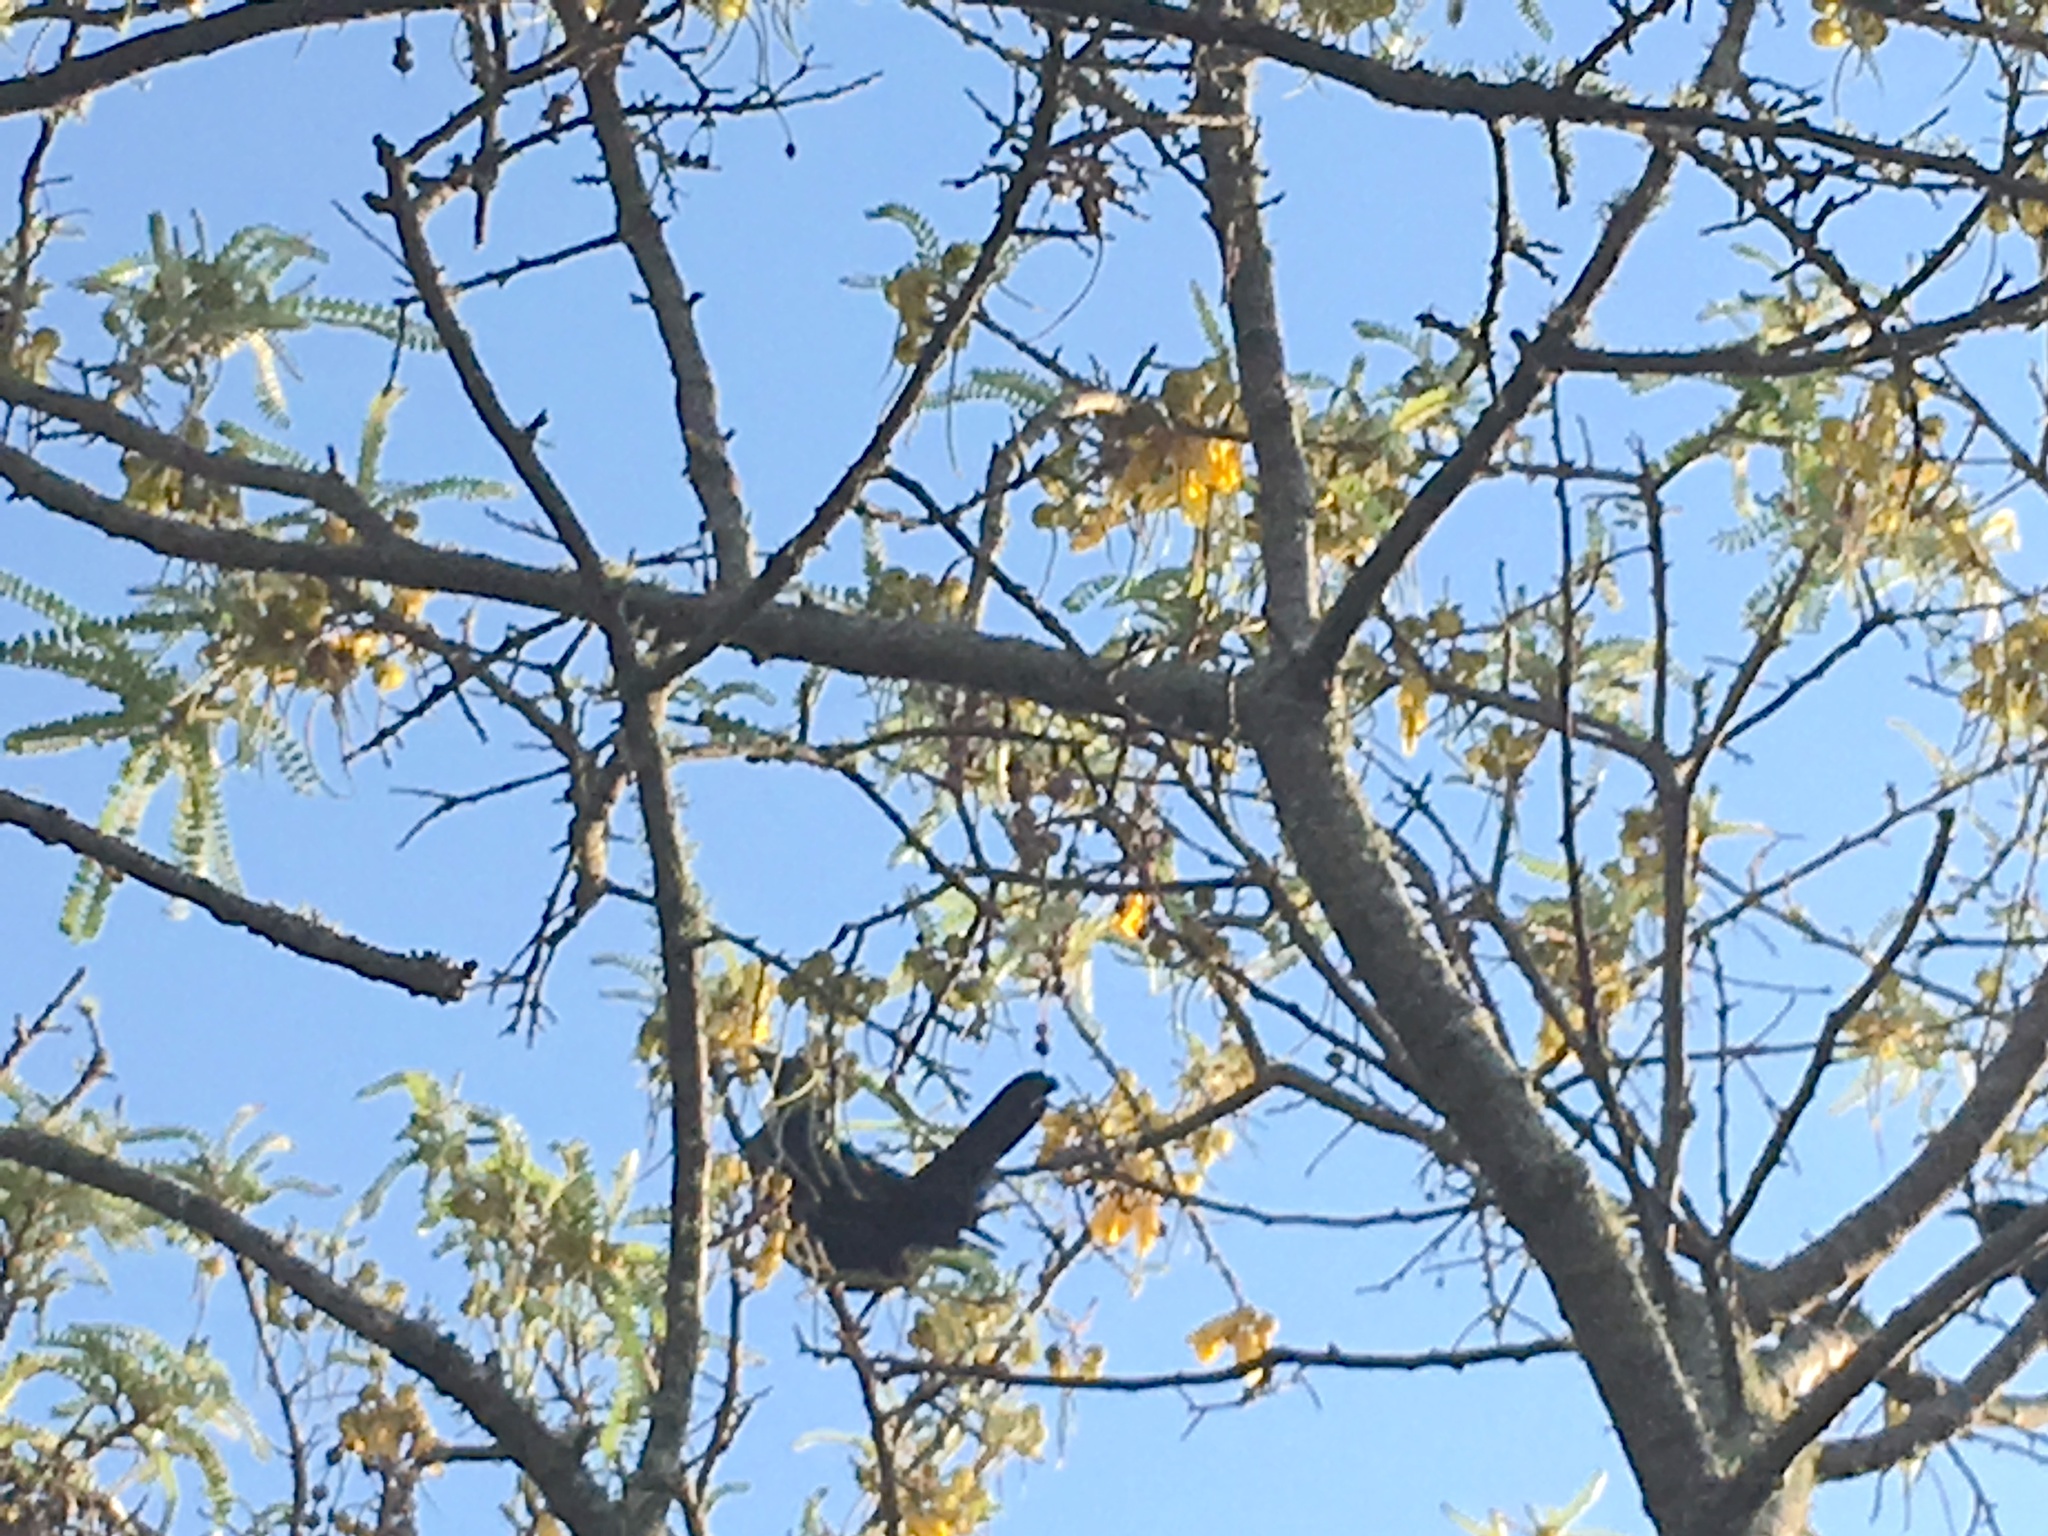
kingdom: Animalia
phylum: Chordata
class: Aves
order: Passeriformes
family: Meliphagidae
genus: Prosthemadera
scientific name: Prosthemadera novaeseelandiae
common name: Tui
